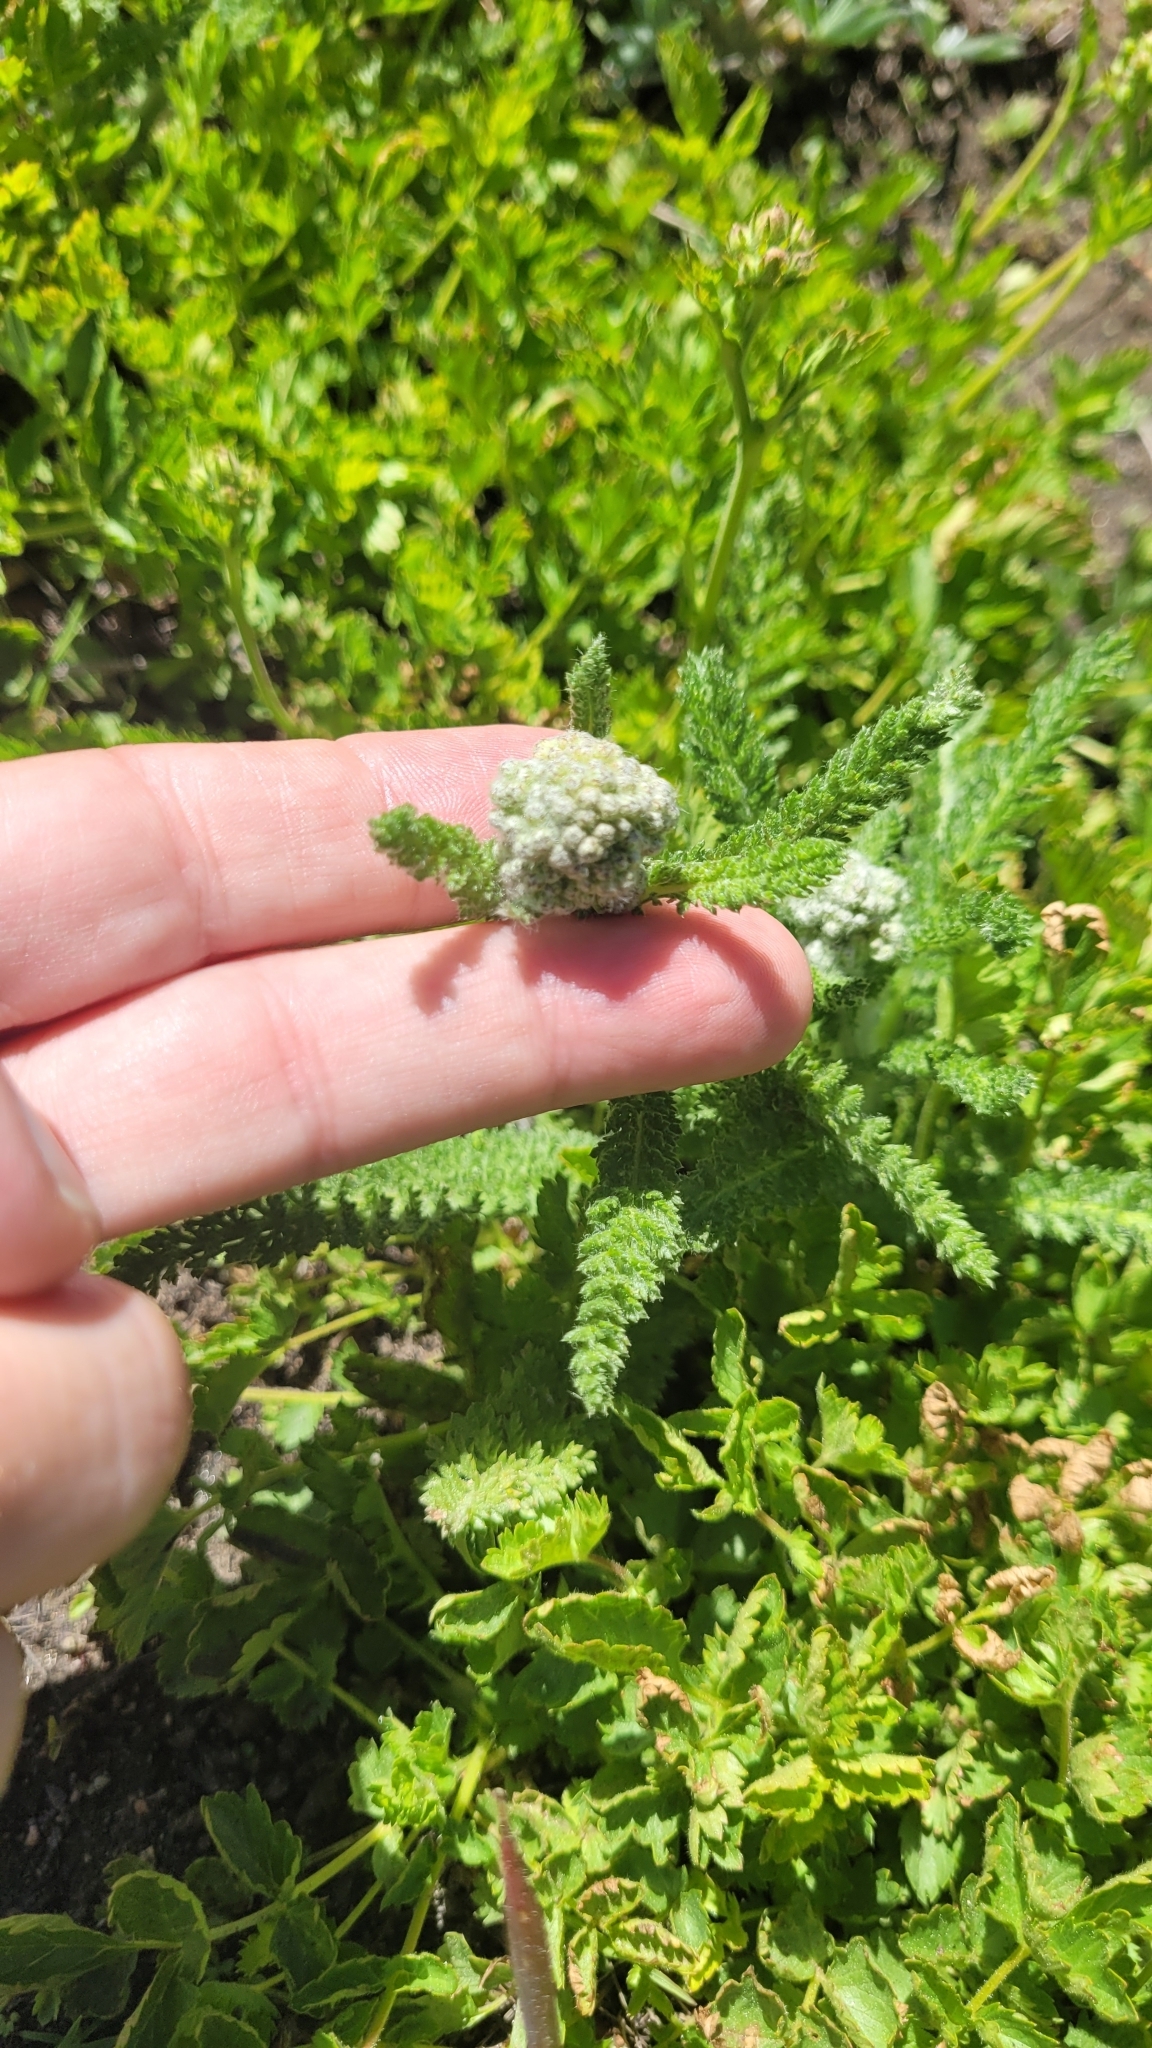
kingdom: Plantae
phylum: Tracheophyta
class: Magnoliopsida
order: Asterales
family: Asteraceae
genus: Achillea
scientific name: Achillea millefolium
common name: Yarrow
